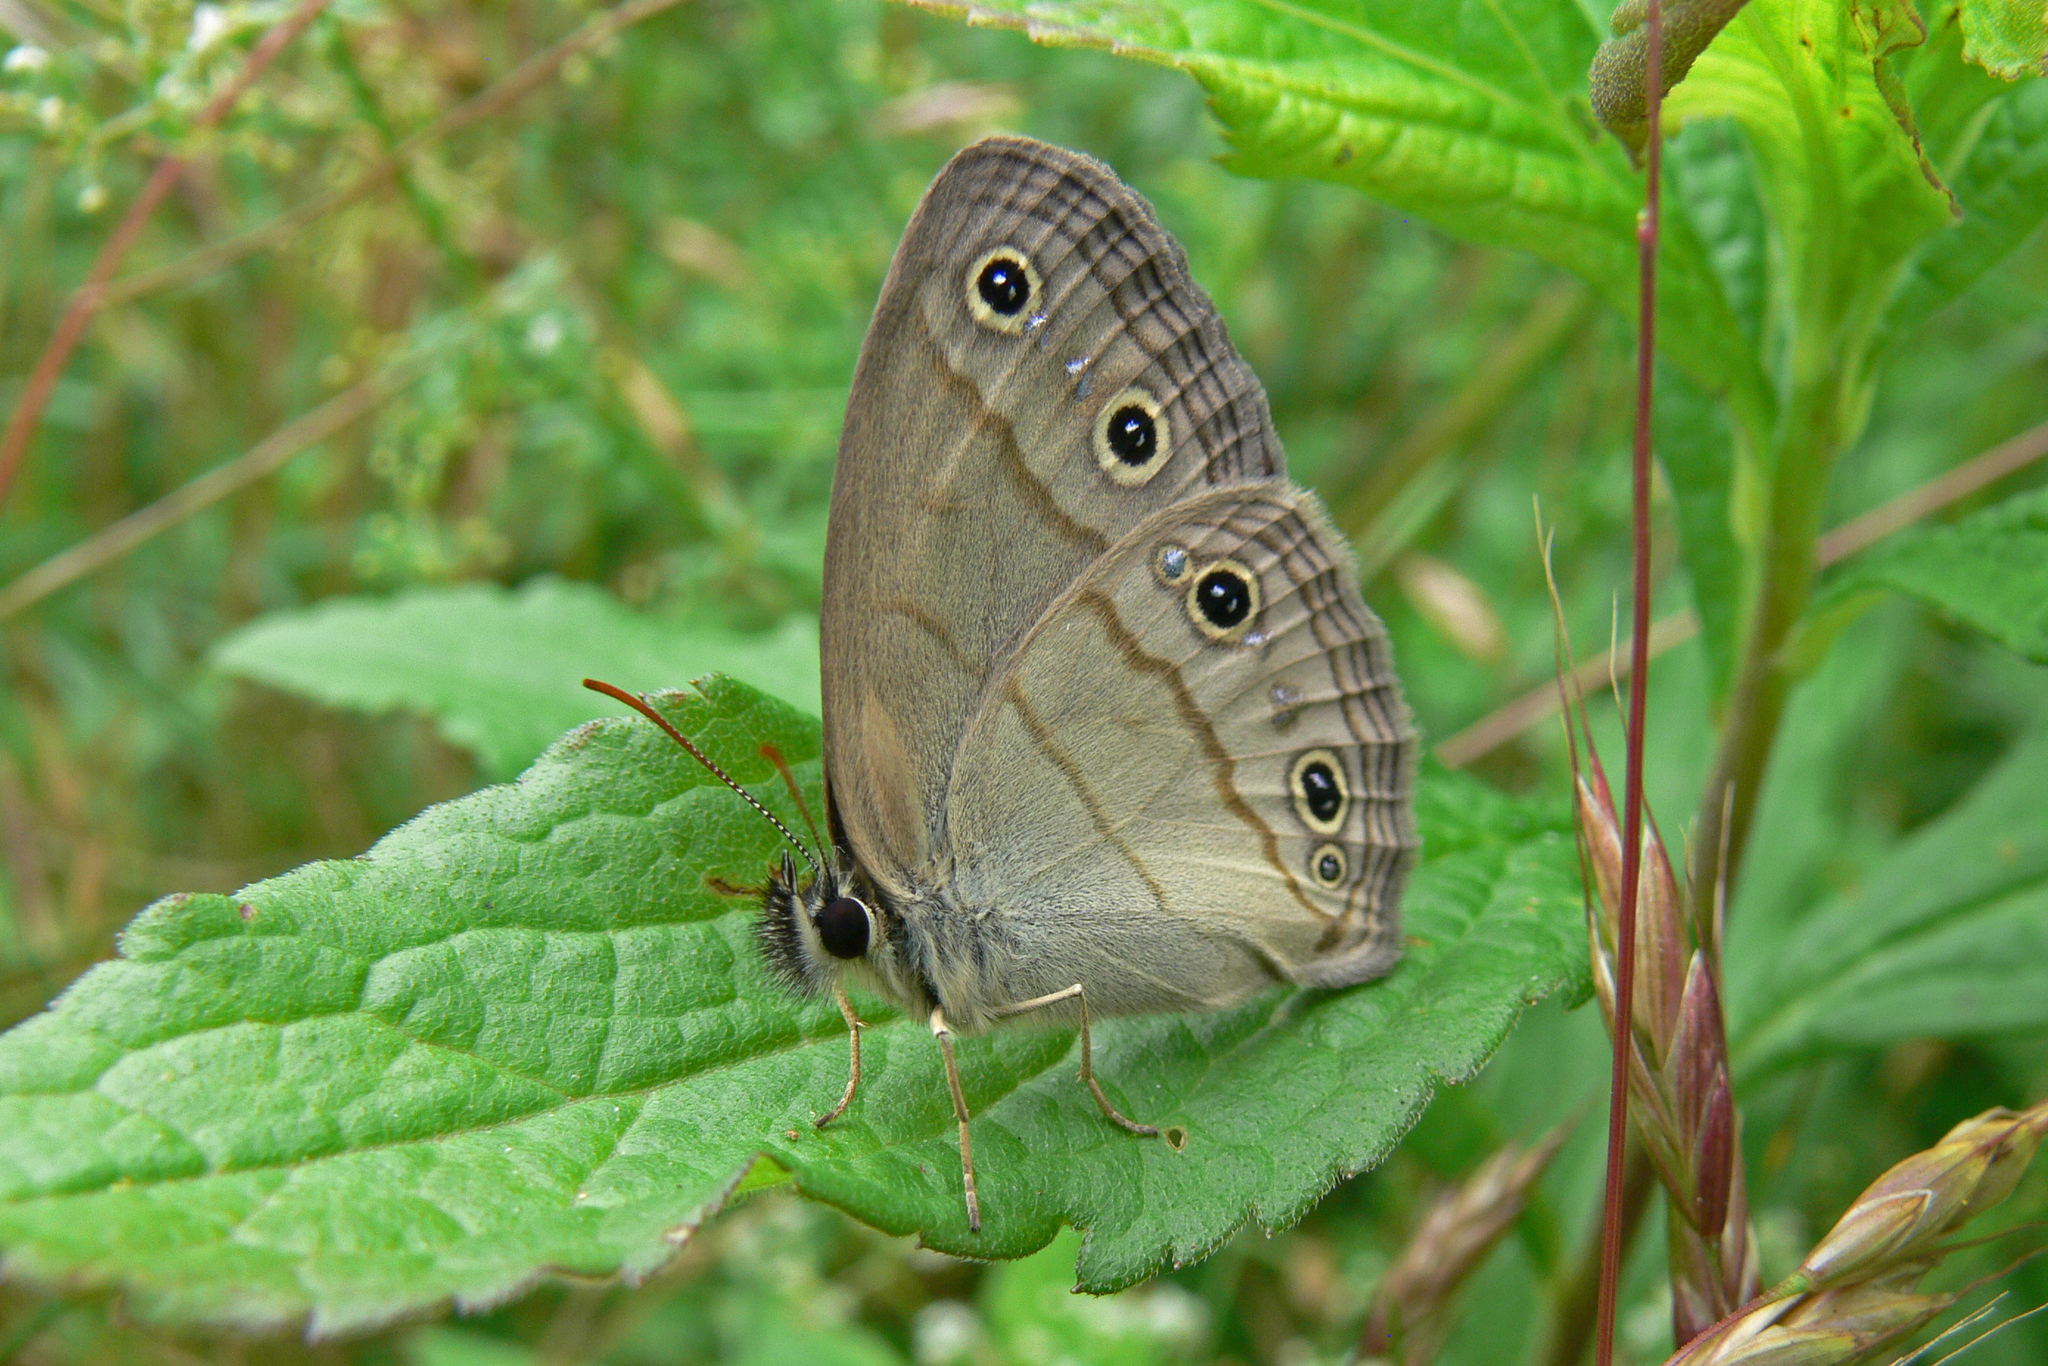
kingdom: Animalia
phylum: Arthropoda
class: Insecta
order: Lepidoptera
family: Nymphalidae
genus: Euptychia
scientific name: Euptychia cymela
